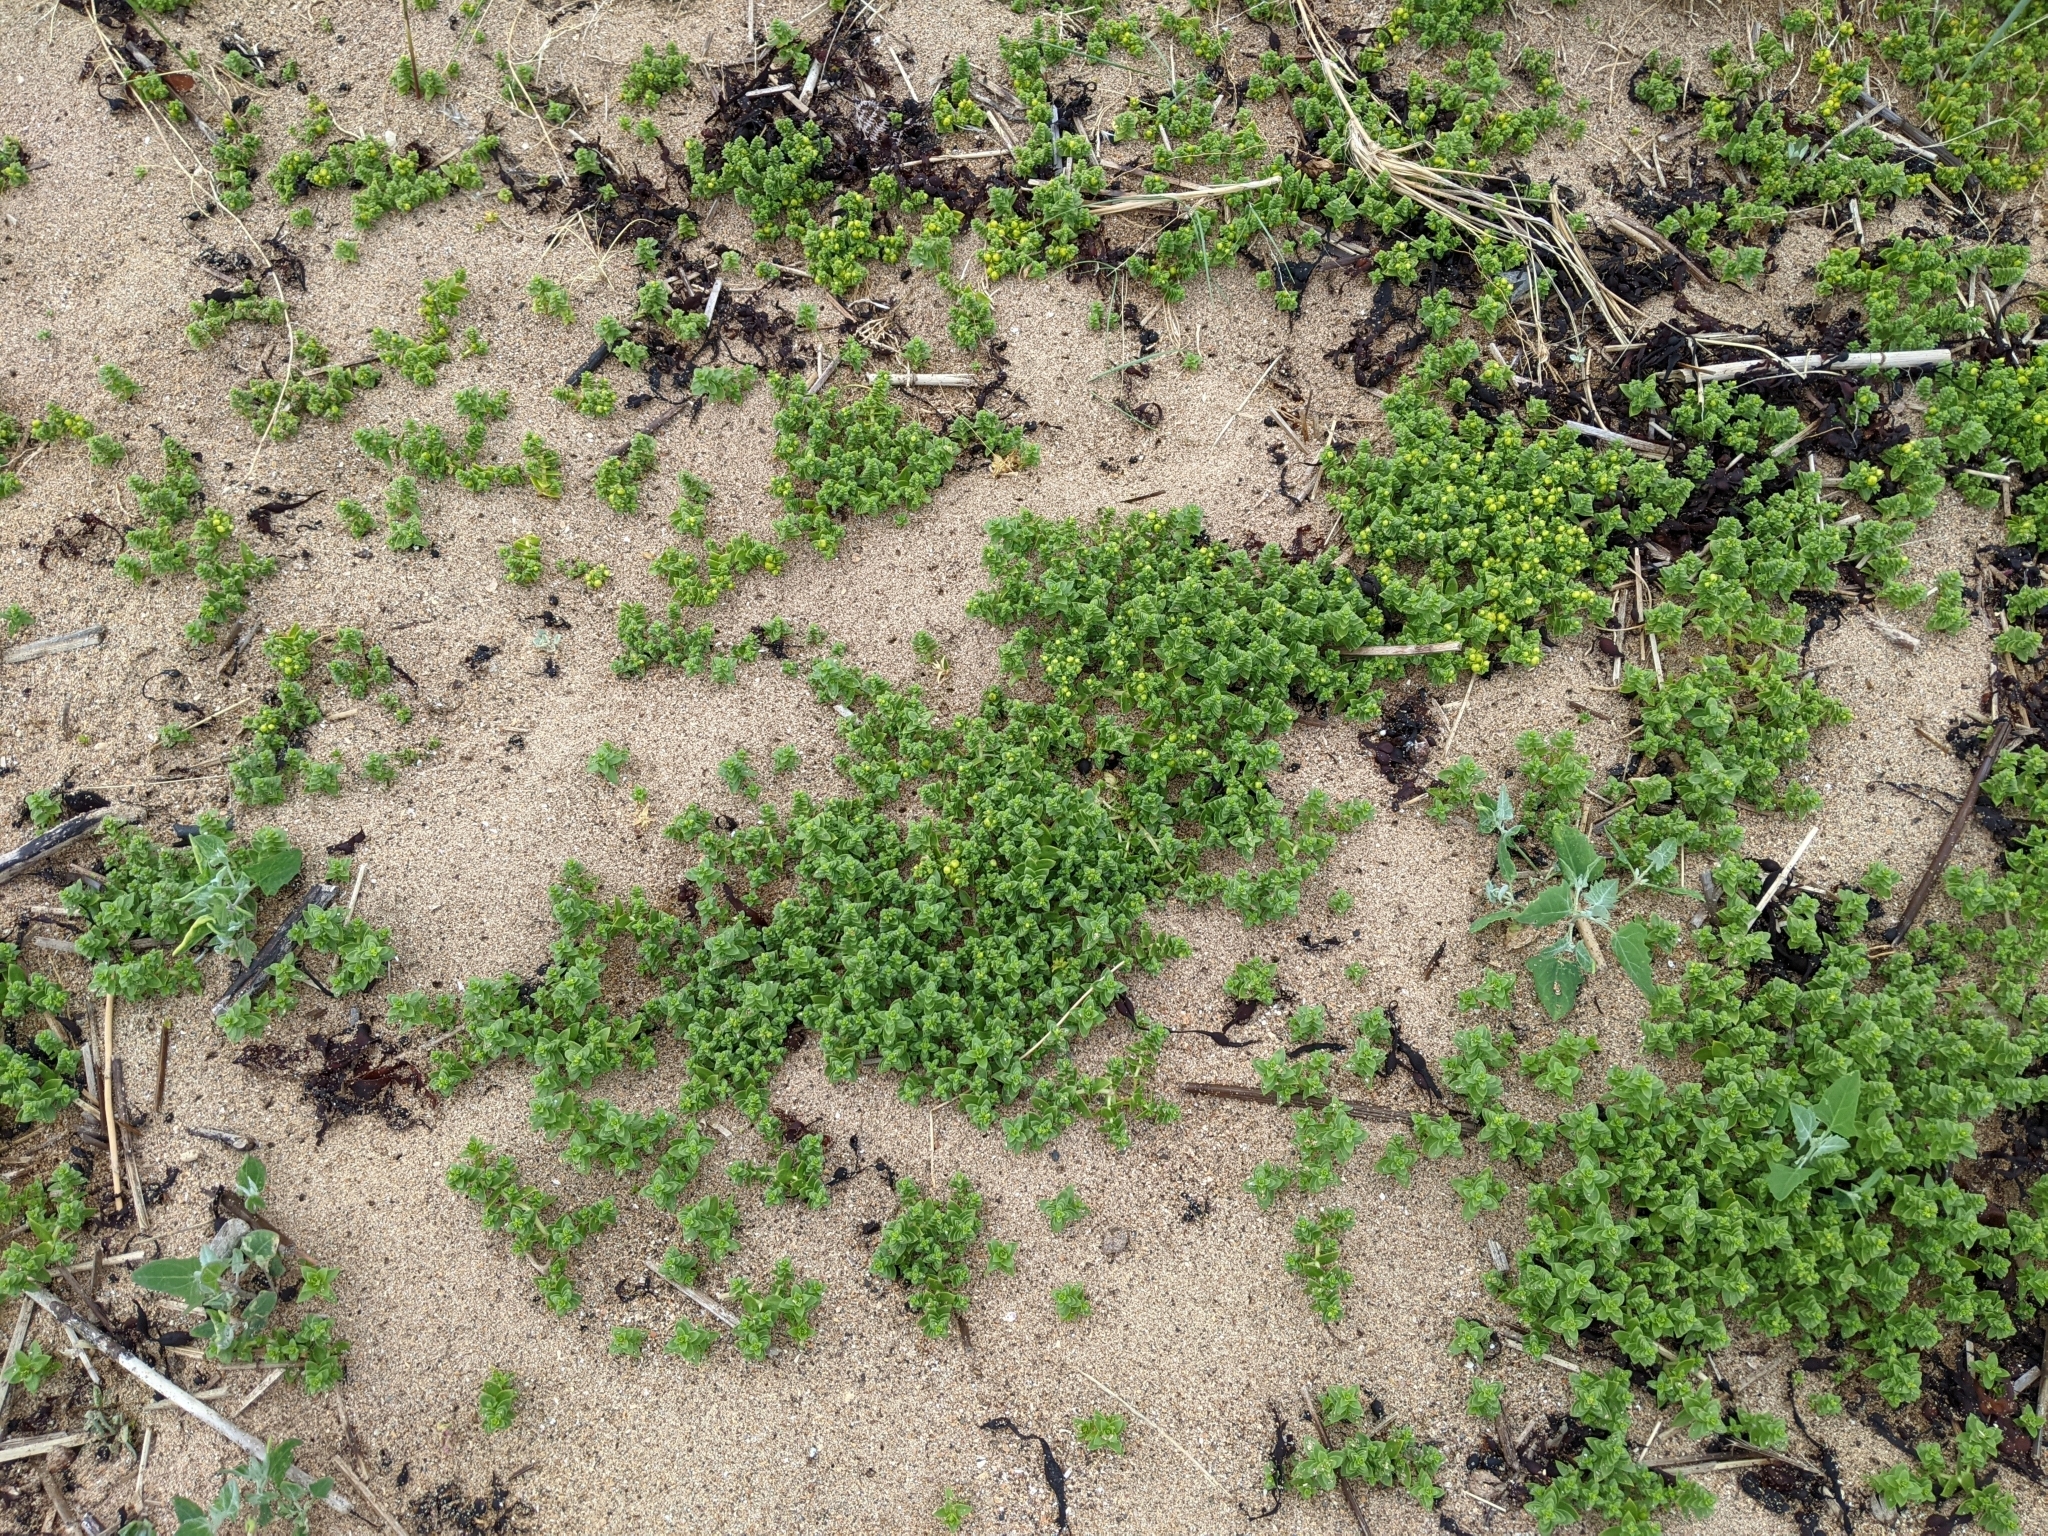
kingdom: Plantae
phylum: Tracheophyta
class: Magnoliopsida
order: Caryophyllales
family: Caryophyllaceae
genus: Honckenya
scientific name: Honckenya peploides
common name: Sea sandwort
